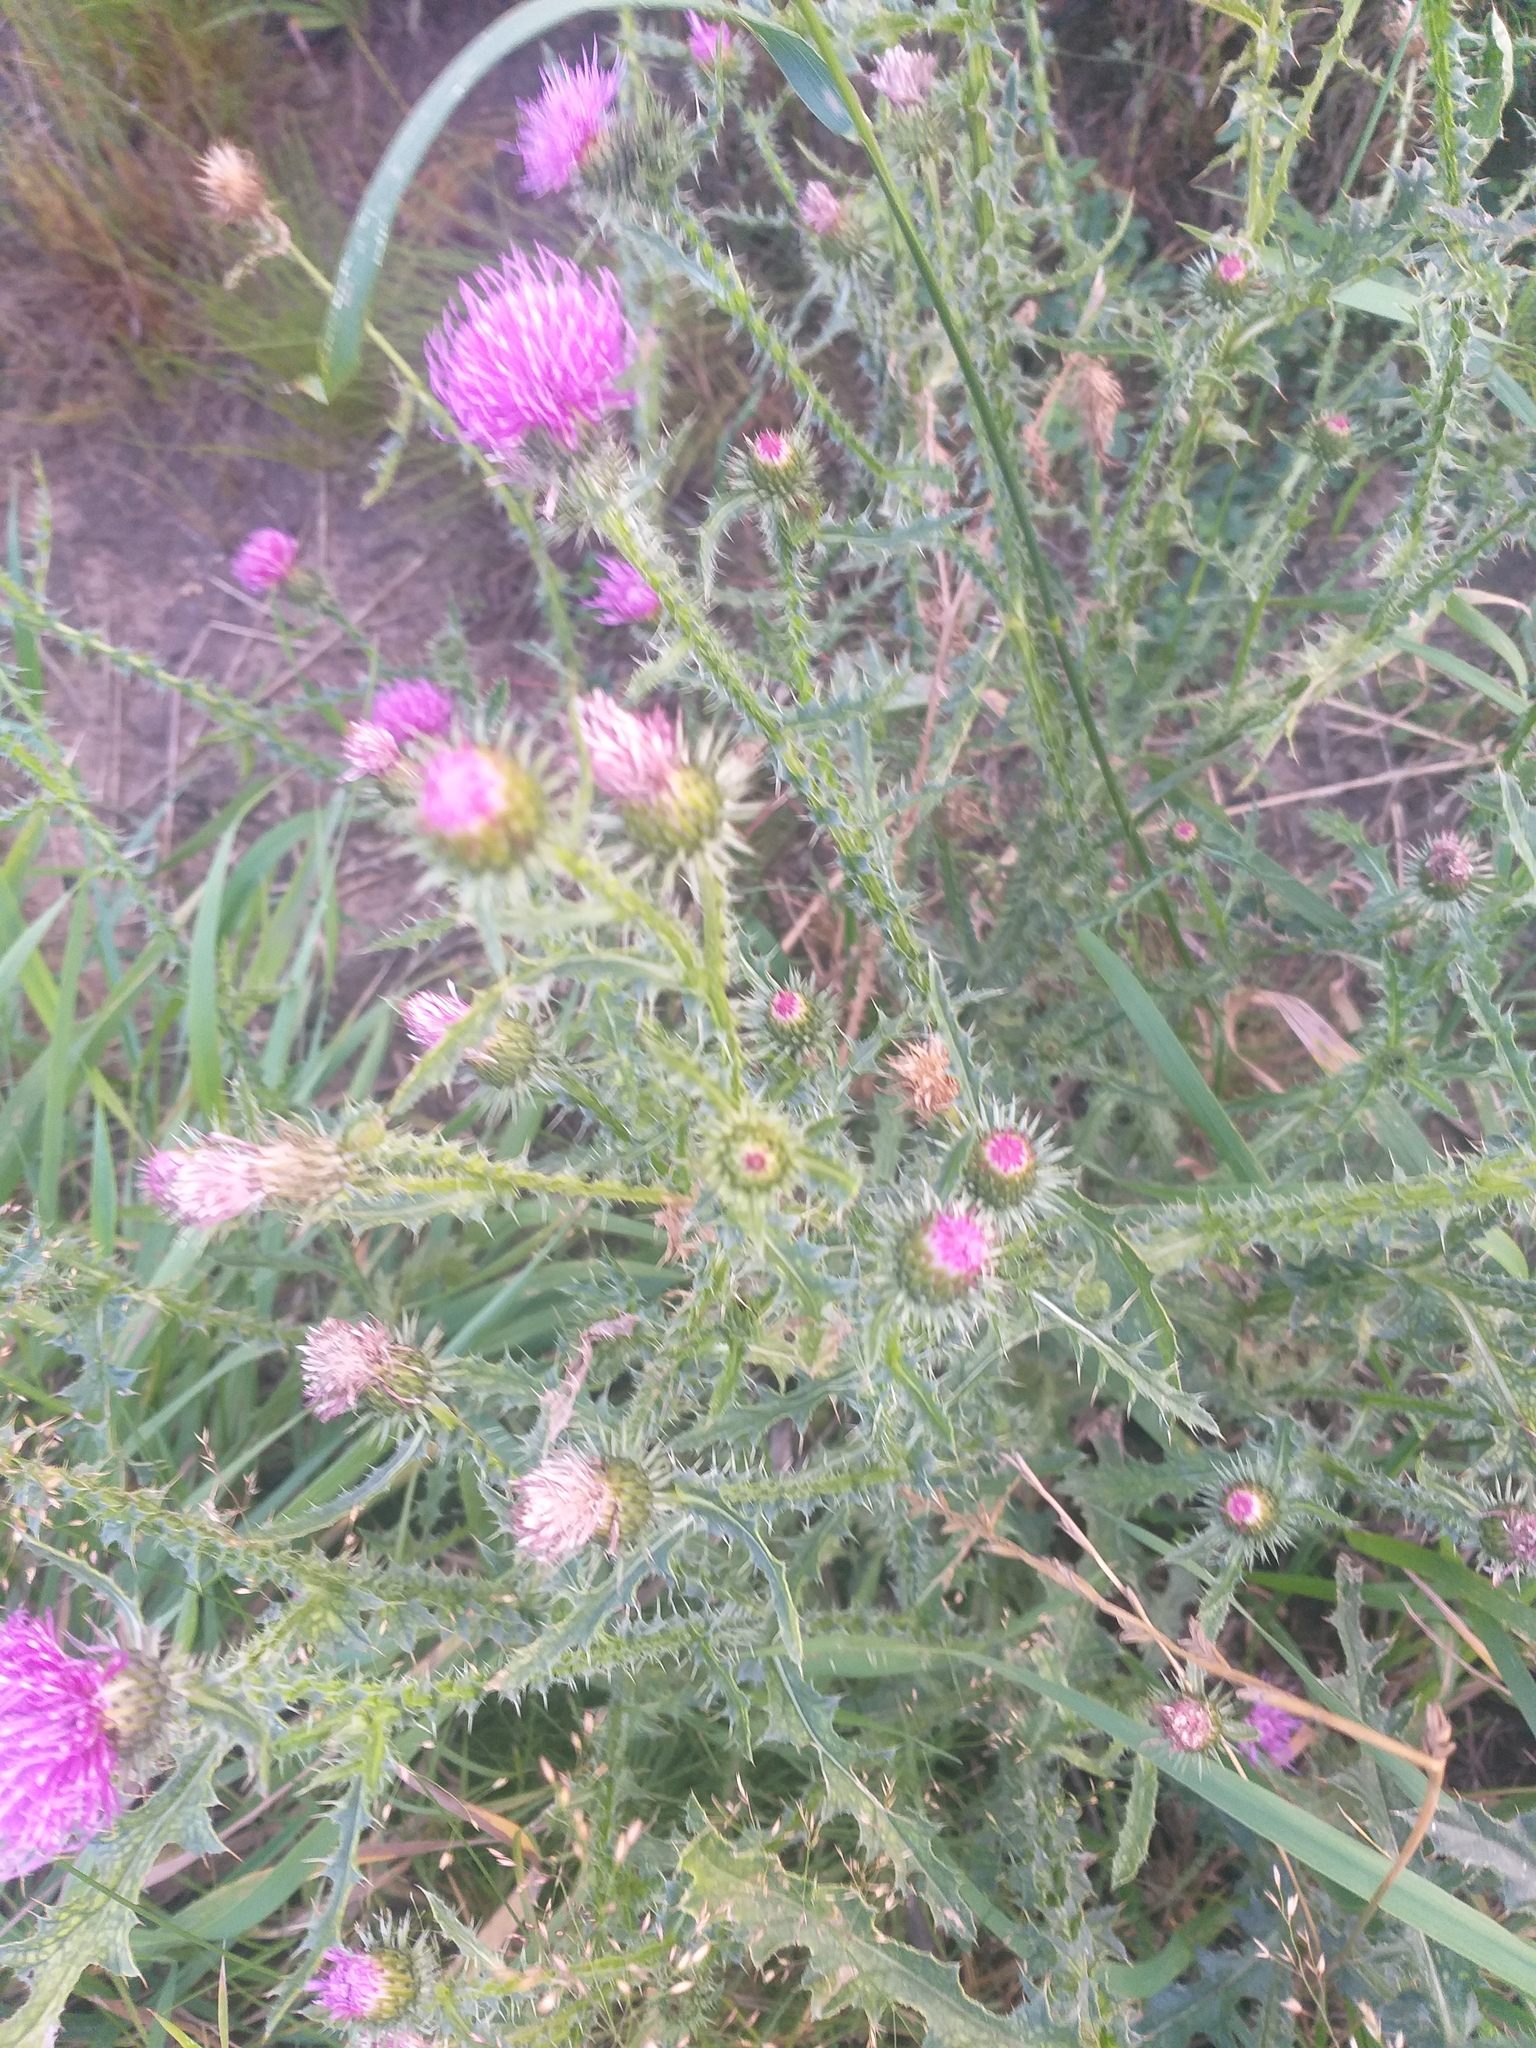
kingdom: Plantae
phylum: Tracheophyta
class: Magnoliopsida
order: Asterales
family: Asteraceae
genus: Carduus
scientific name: Carduus acanthoides
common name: Plumeless thistle
